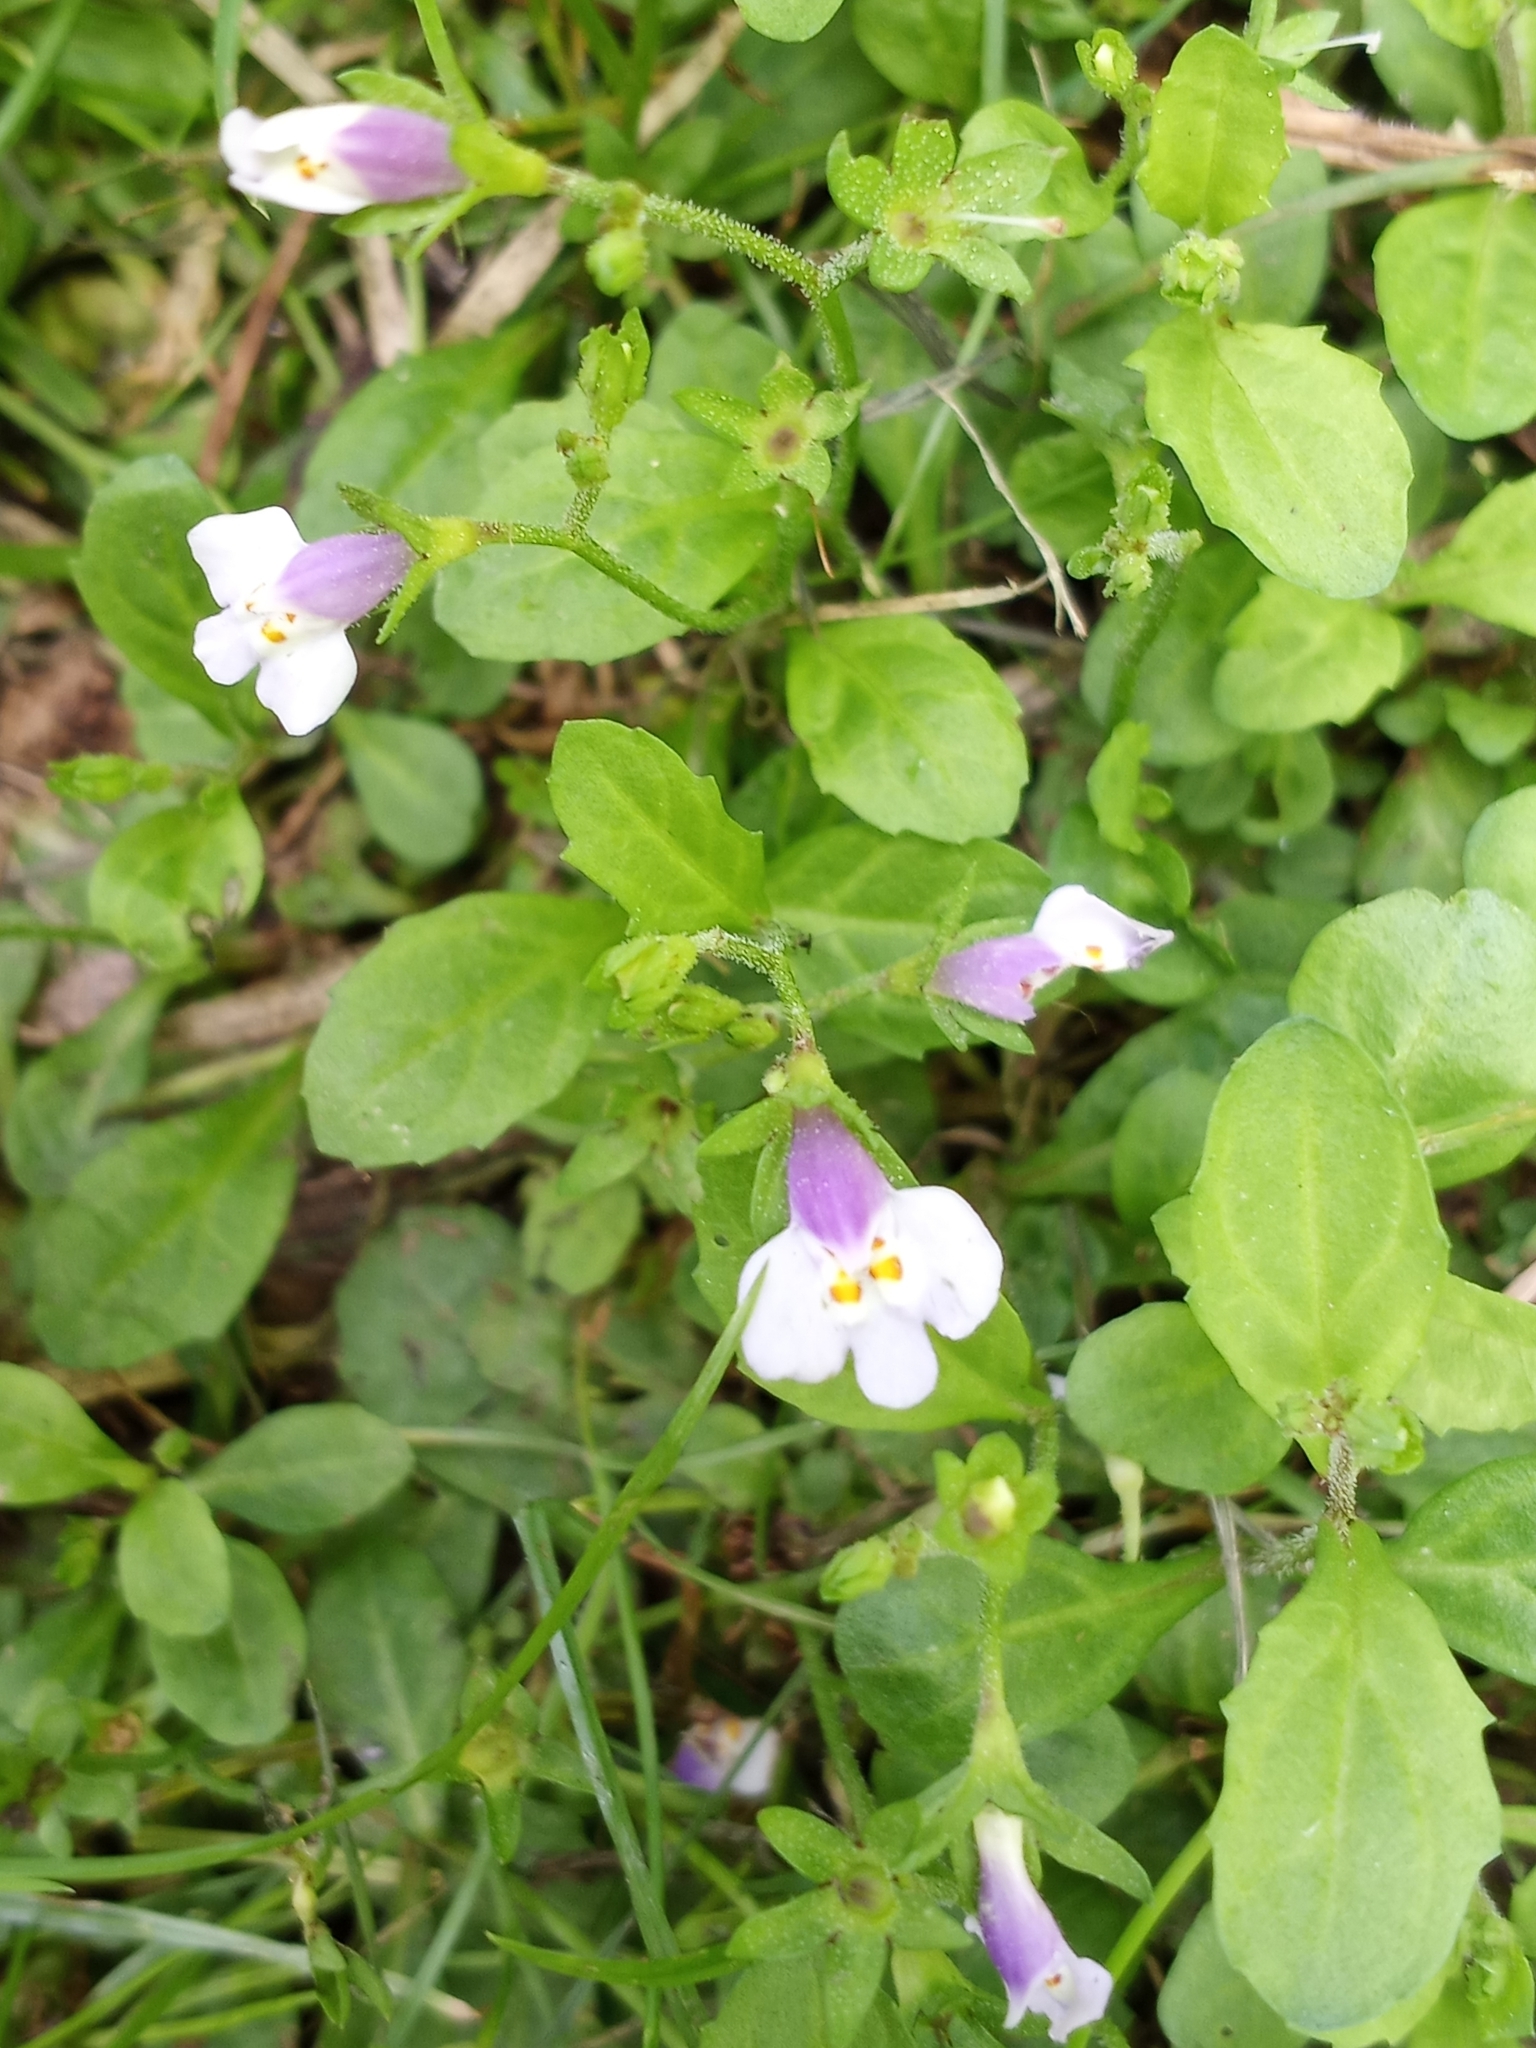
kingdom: Plantae
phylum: Tracheophyta
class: Magnoliopsida
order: Lamiales
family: Mazaceae
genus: Mazus
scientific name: Mazus pumilus
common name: Japanese mazus
